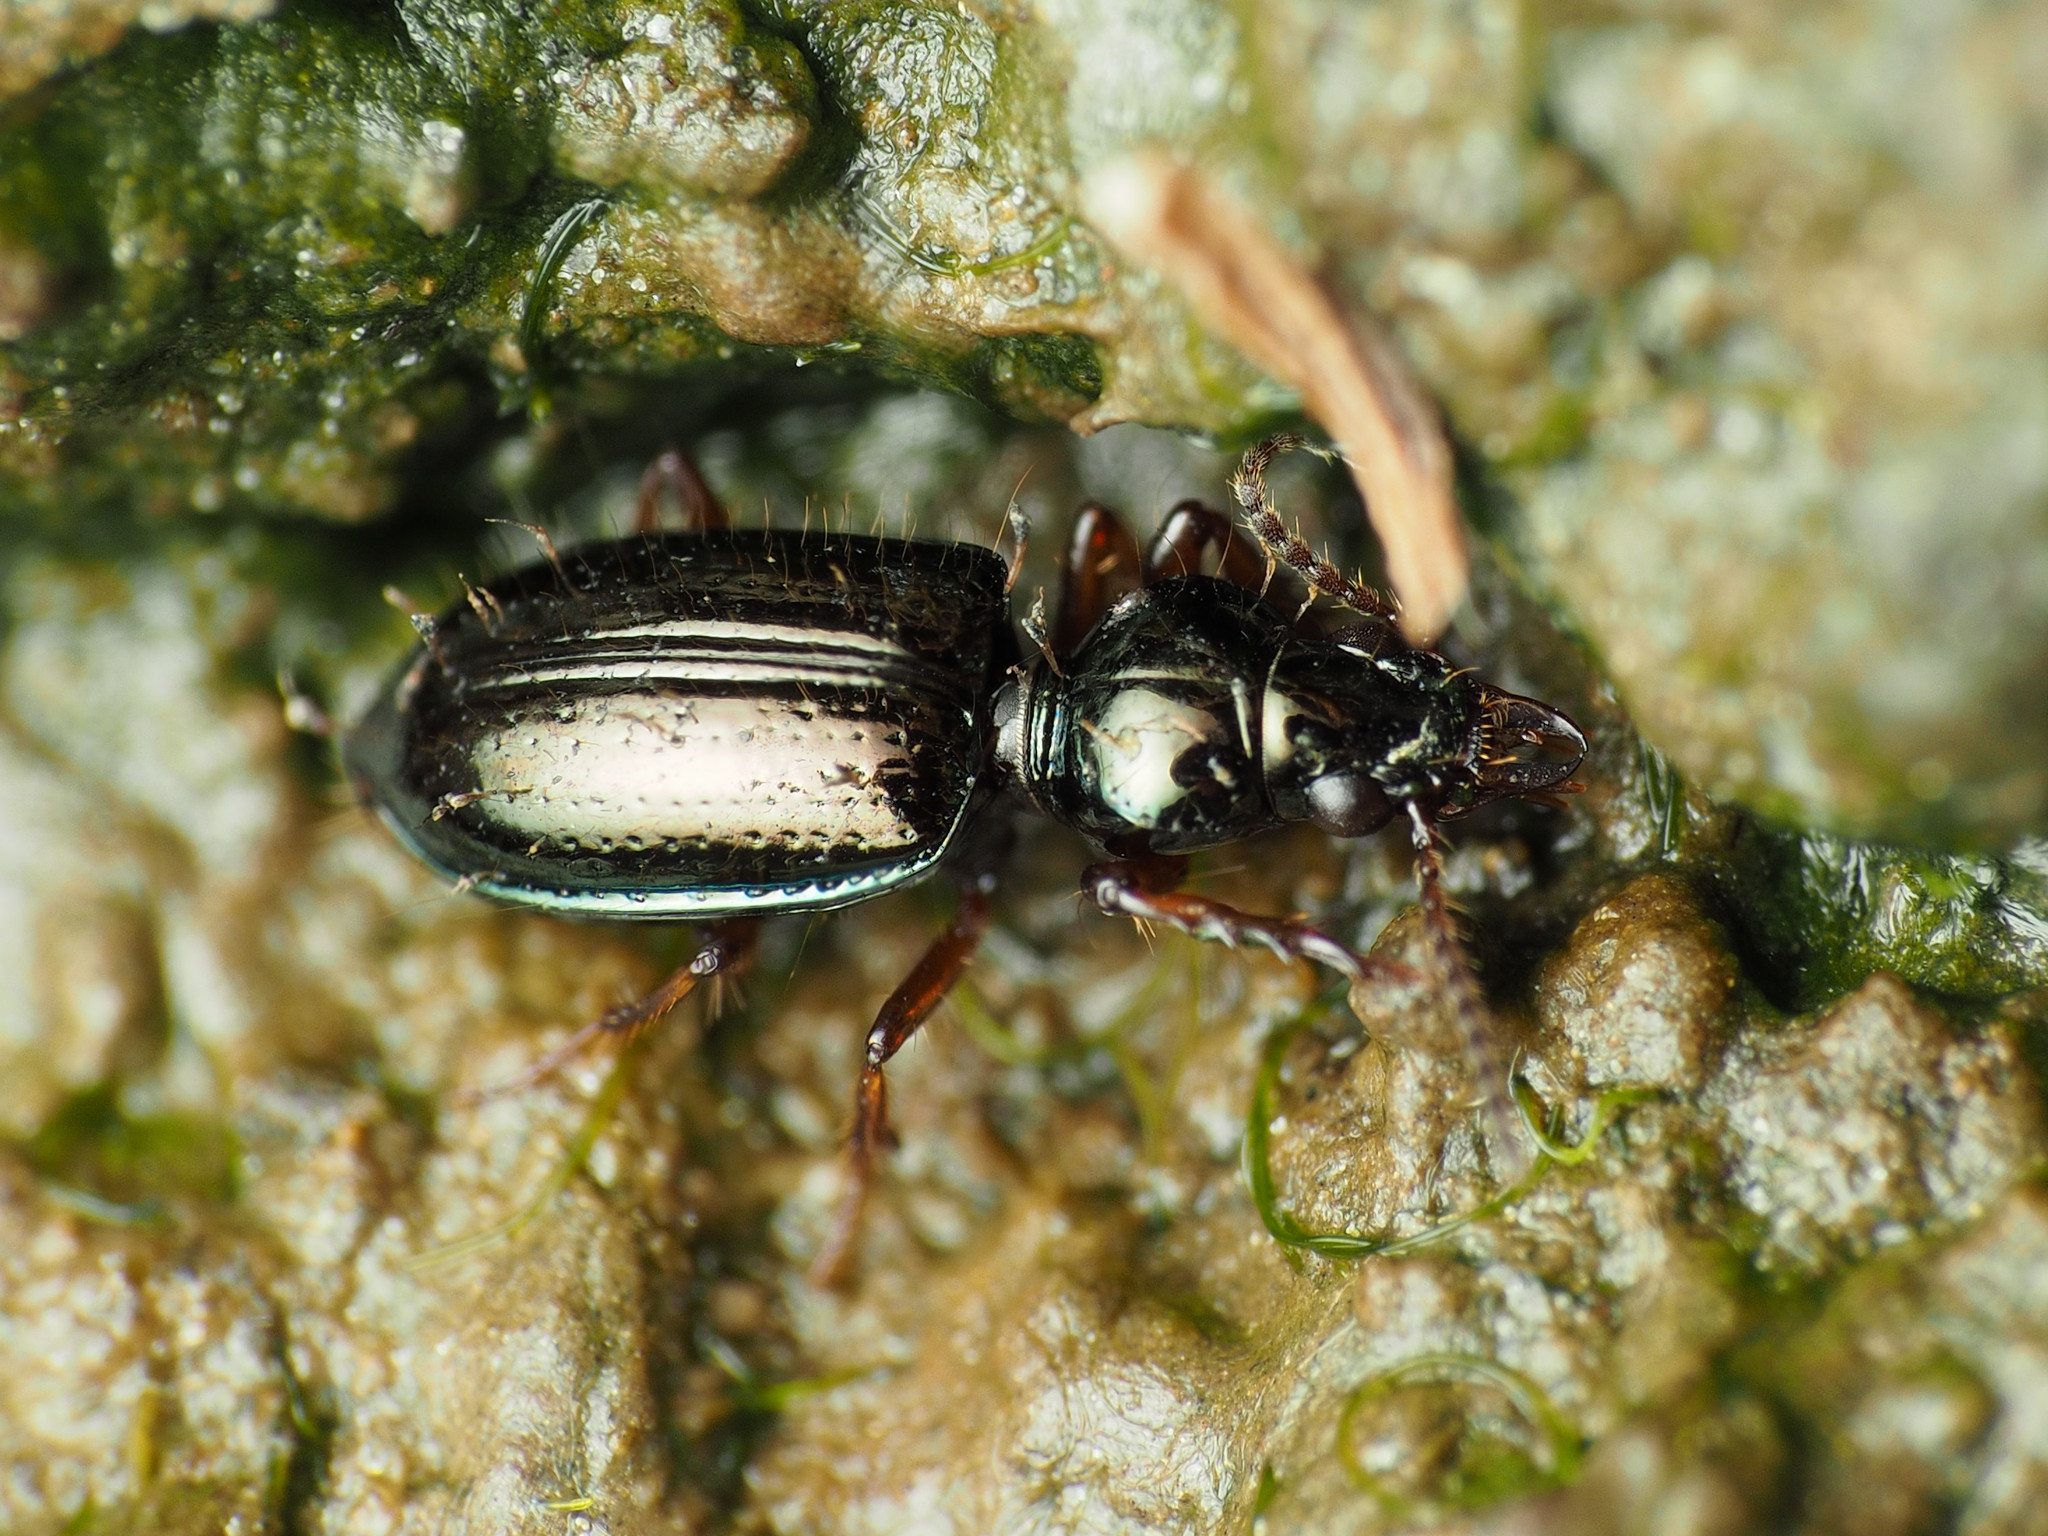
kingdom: Animalia
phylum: Arthropoda
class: Insecta
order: Coleoptera
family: Carabidae
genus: Semiardistomis
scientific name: Semiardistomis viridis
